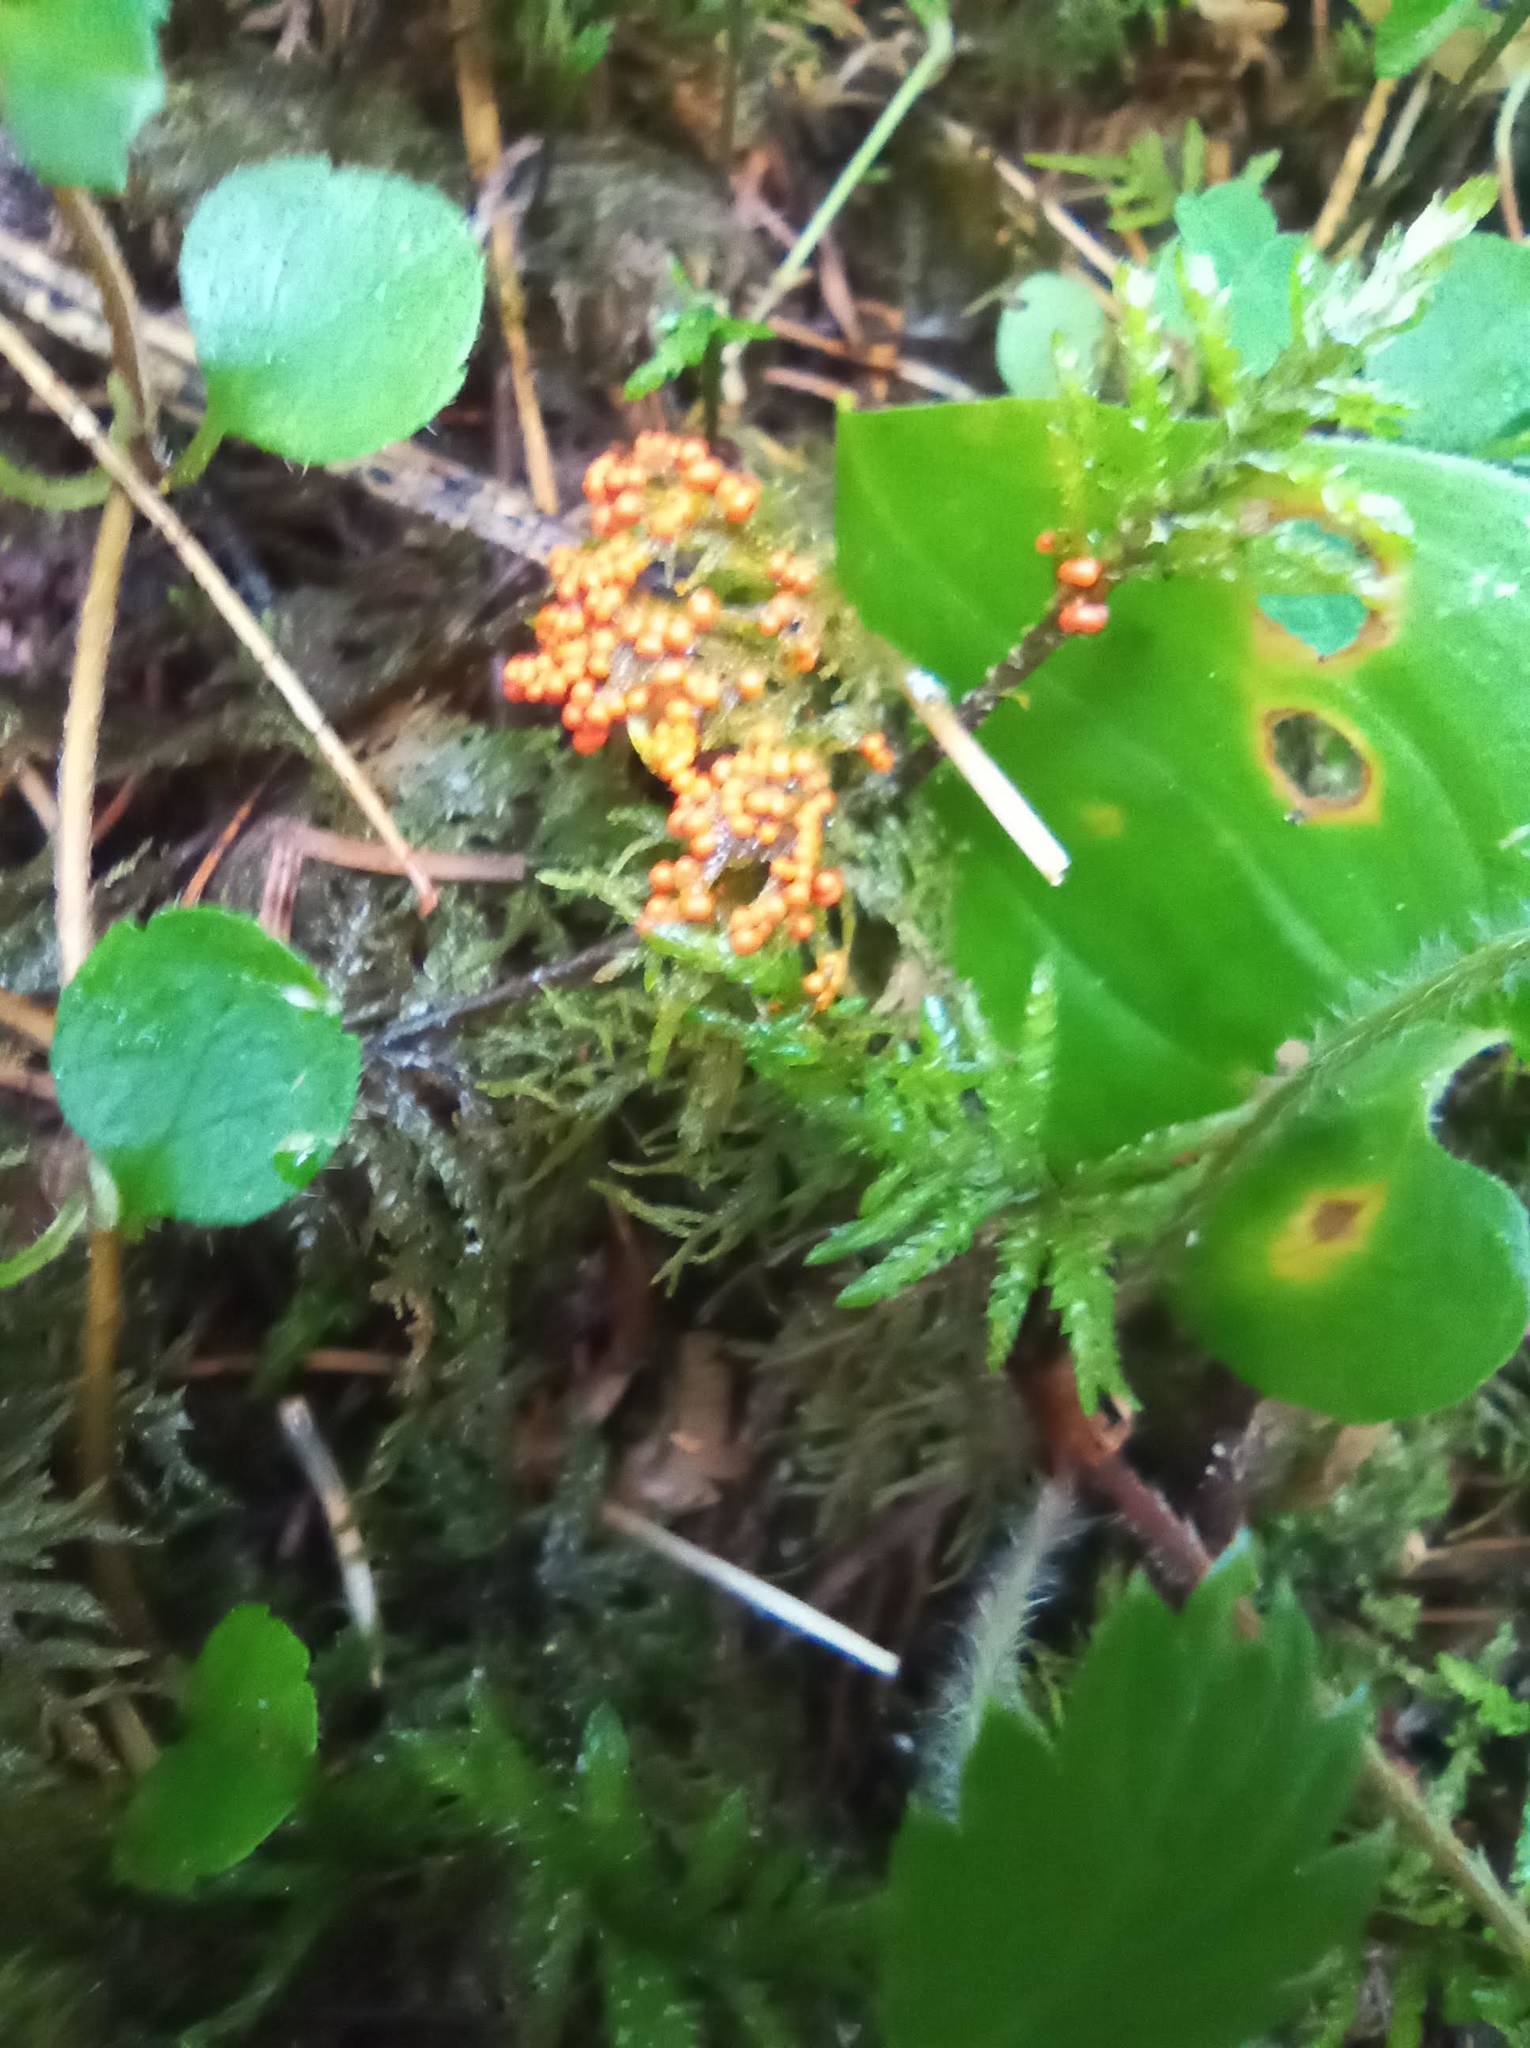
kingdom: Protozoa
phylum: Mycetozoa
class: Myxomycetes
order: Trichiales
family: Arcyriaceae
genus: Hemitrichia
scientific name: Hemitrichia decipiens
